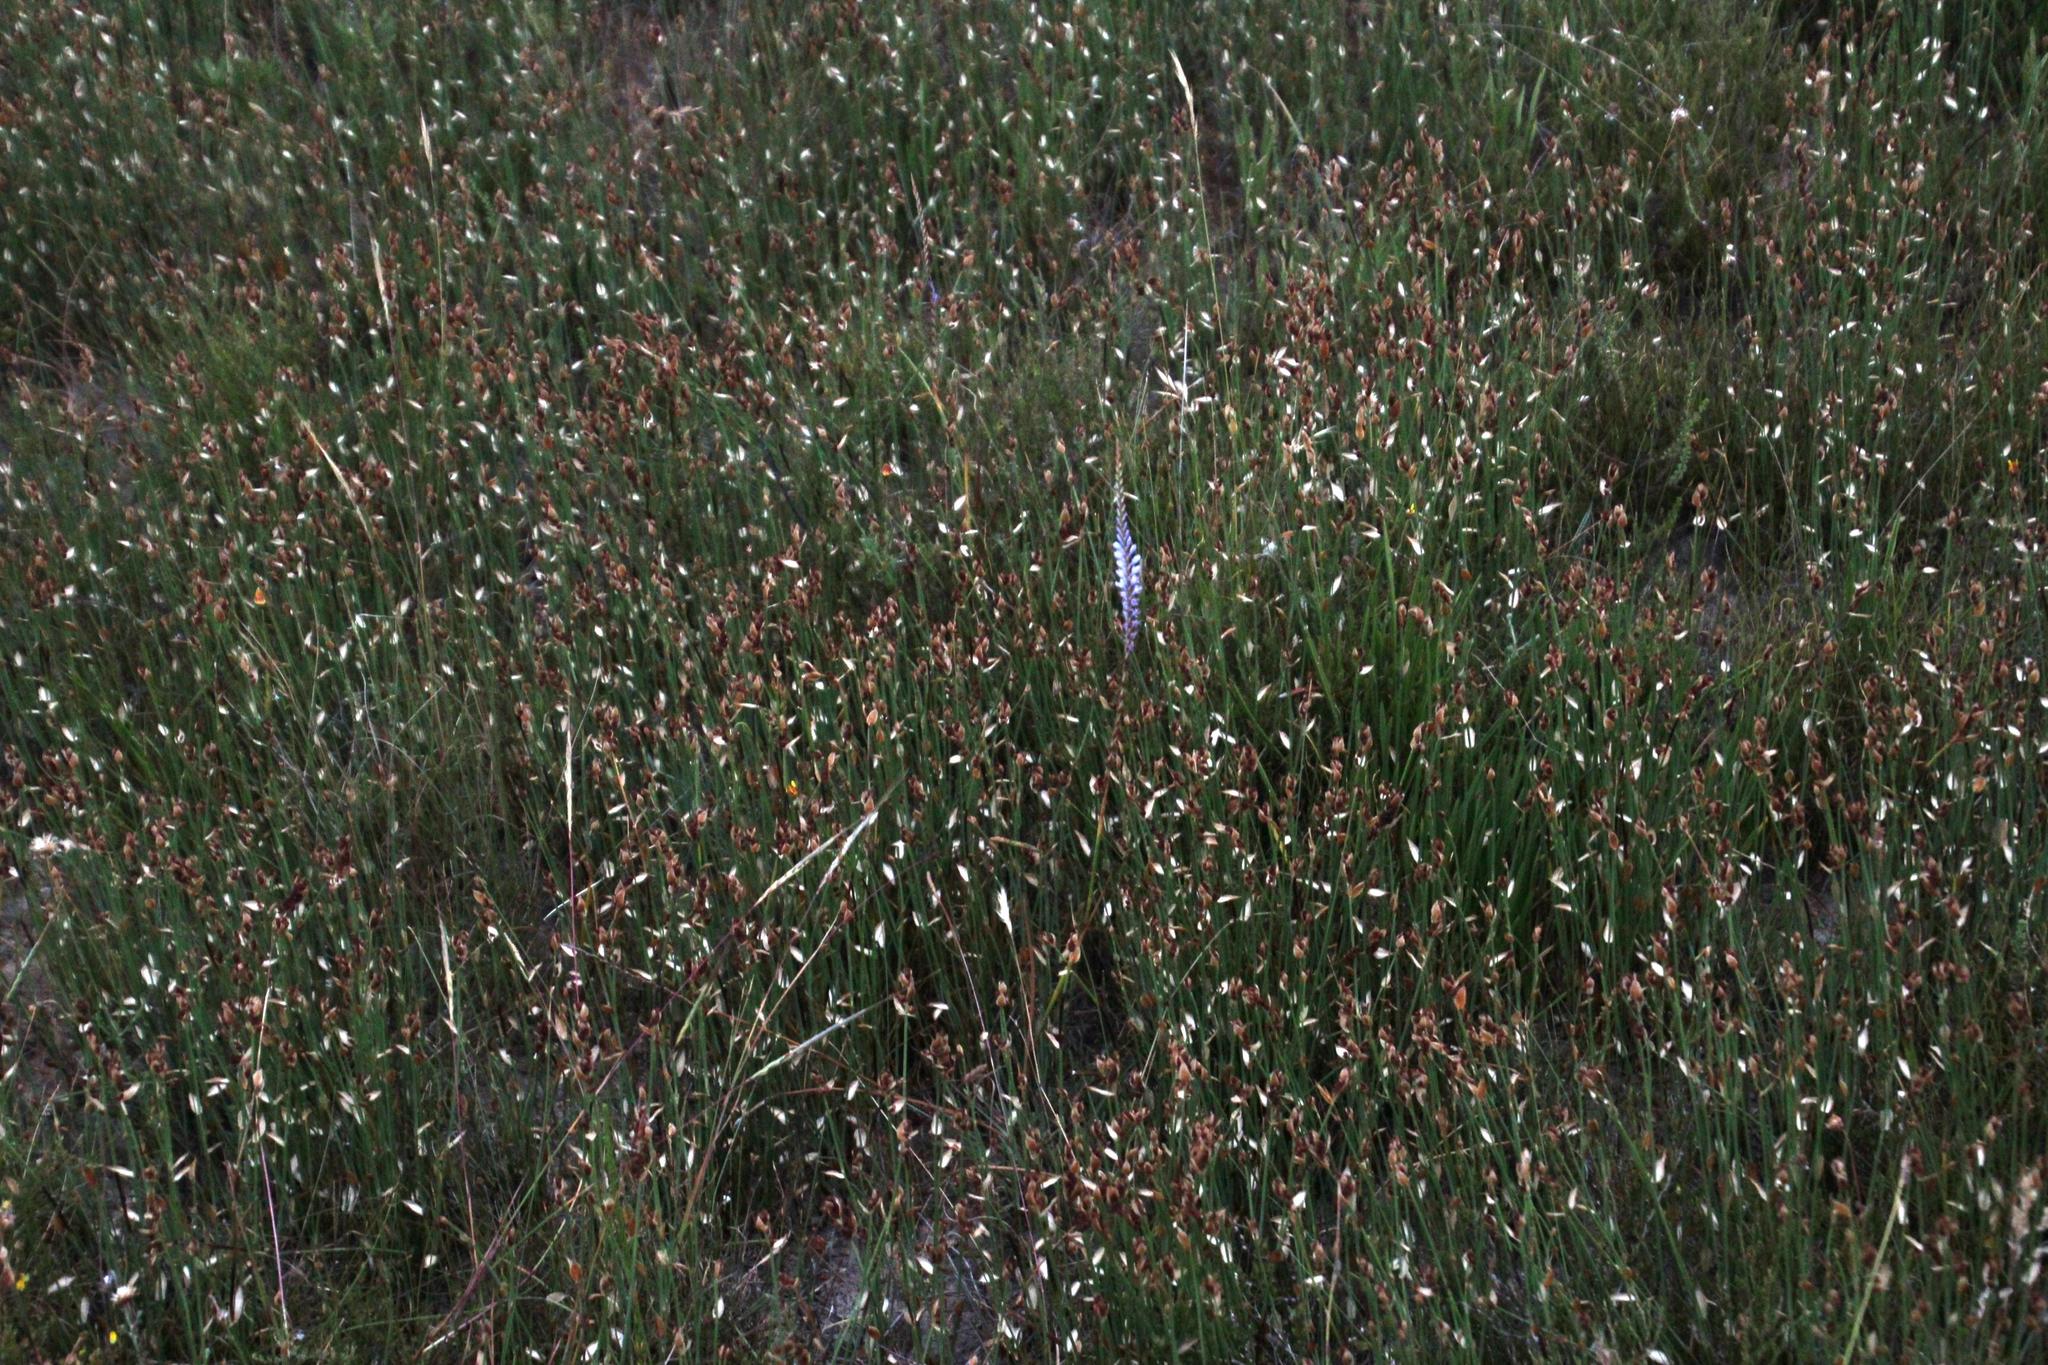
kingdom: Plantae
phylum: Tracheophyta
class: Liliopsida
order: Asparagales
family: Iridaceae
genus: Micranthus
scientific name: Micranthus plantagineus
